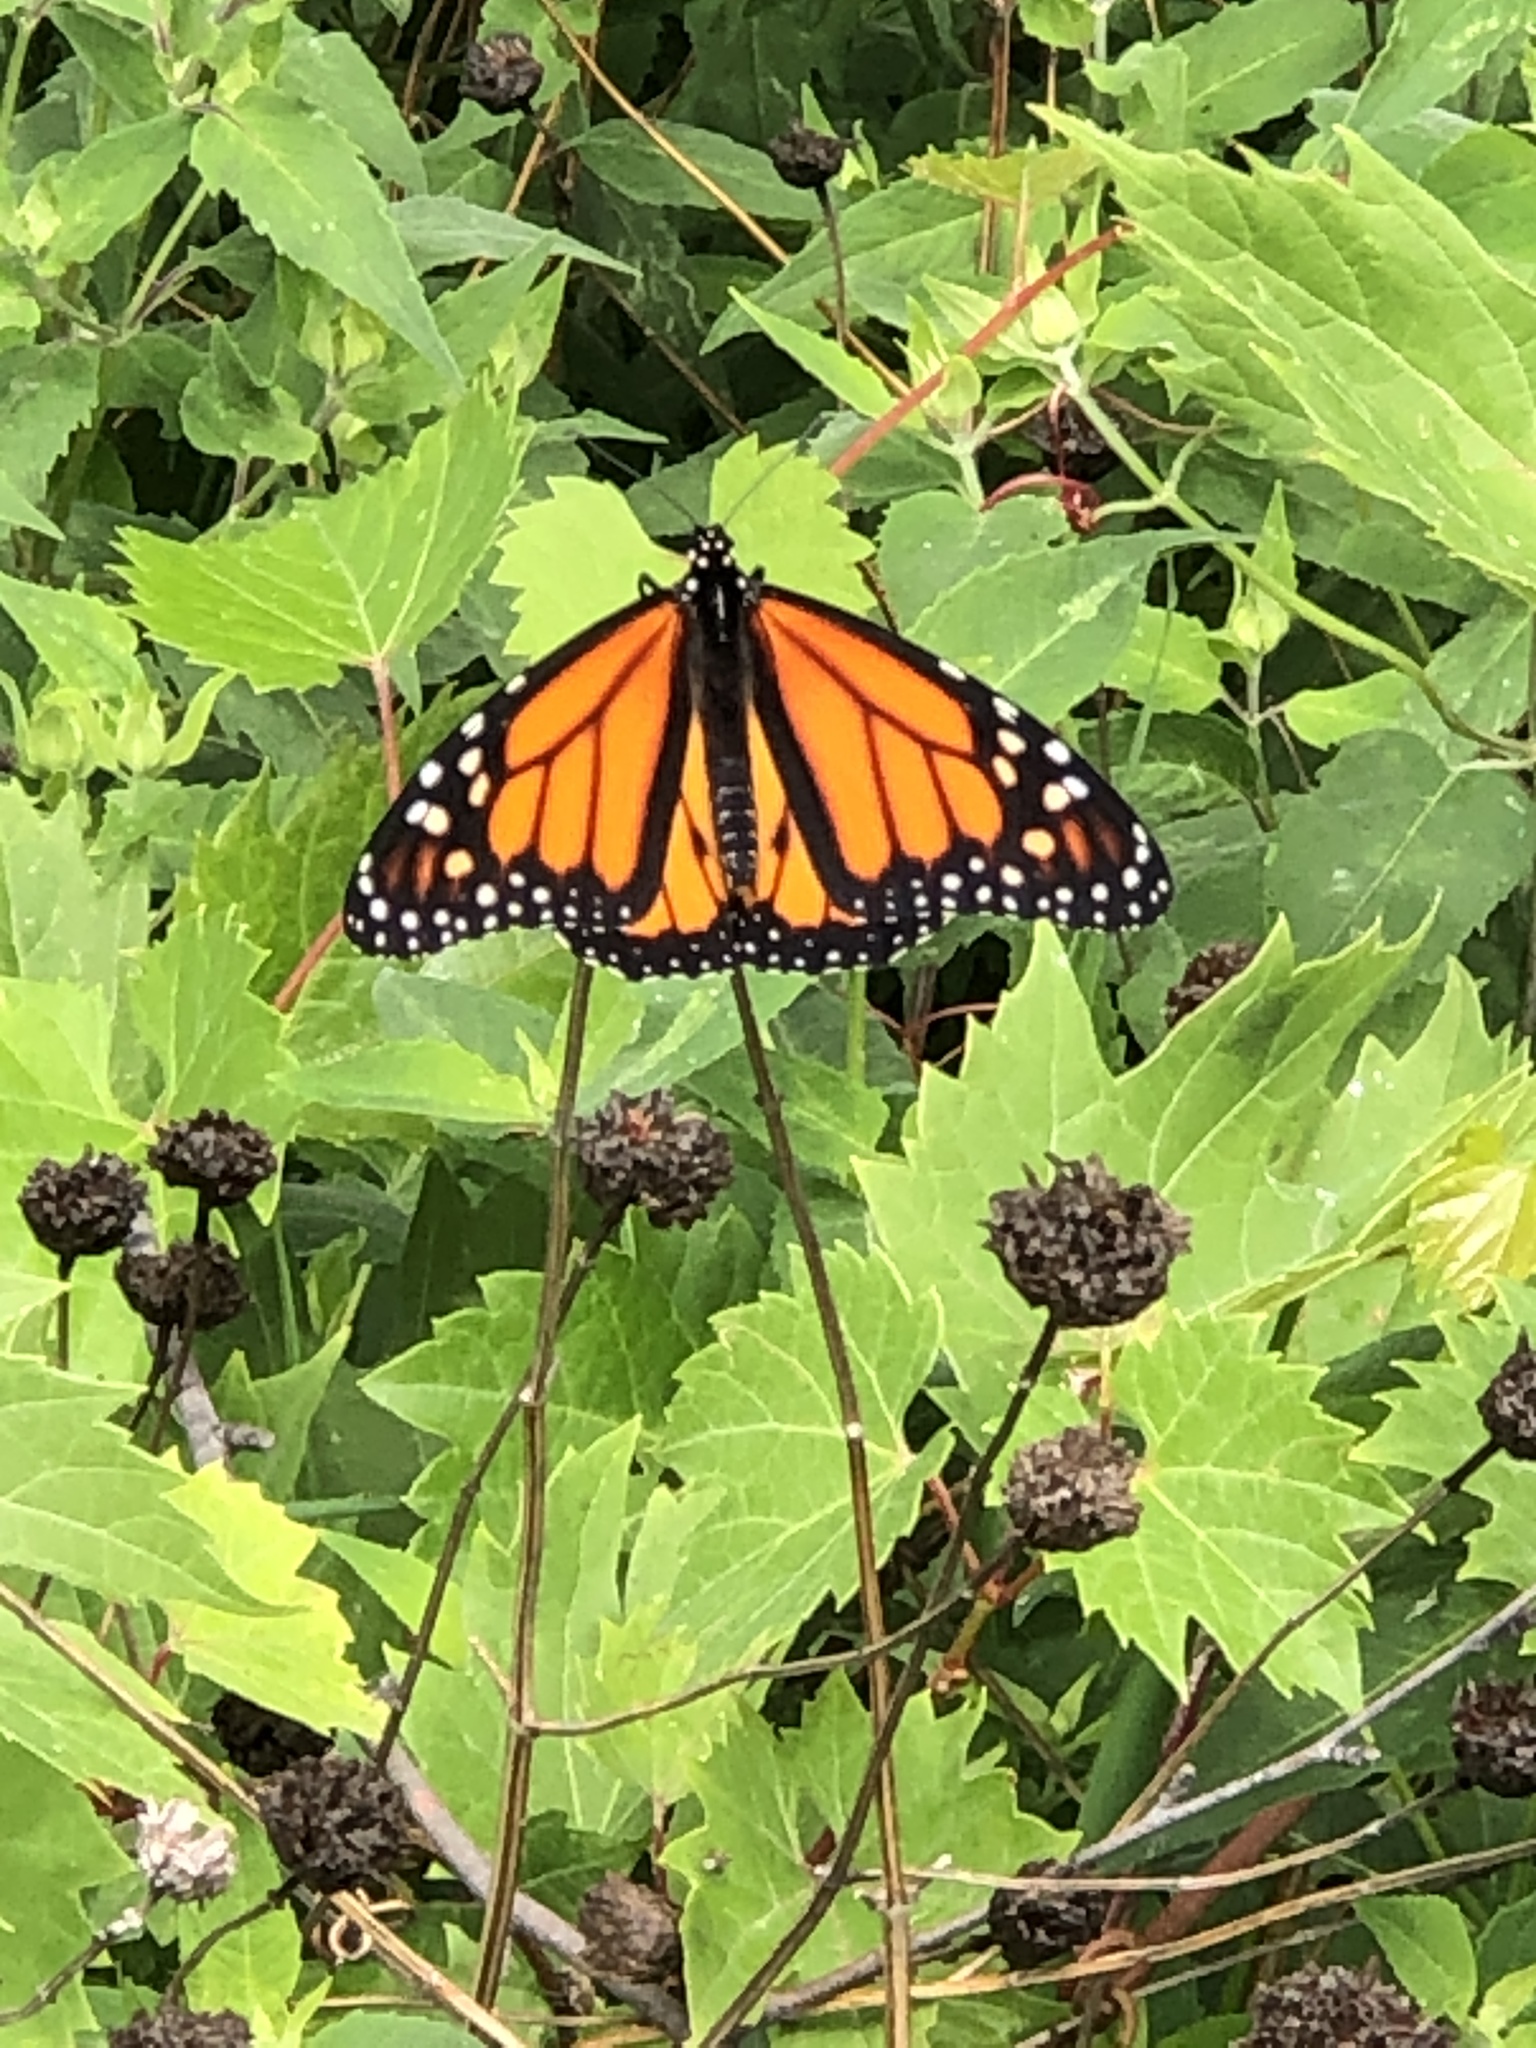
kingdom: Animalia
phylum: Arthropoda
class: Insecta
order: Lepidoptera
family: Nymphalidae
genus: Danaus
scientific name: Danaus plexippus
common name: Monarch
